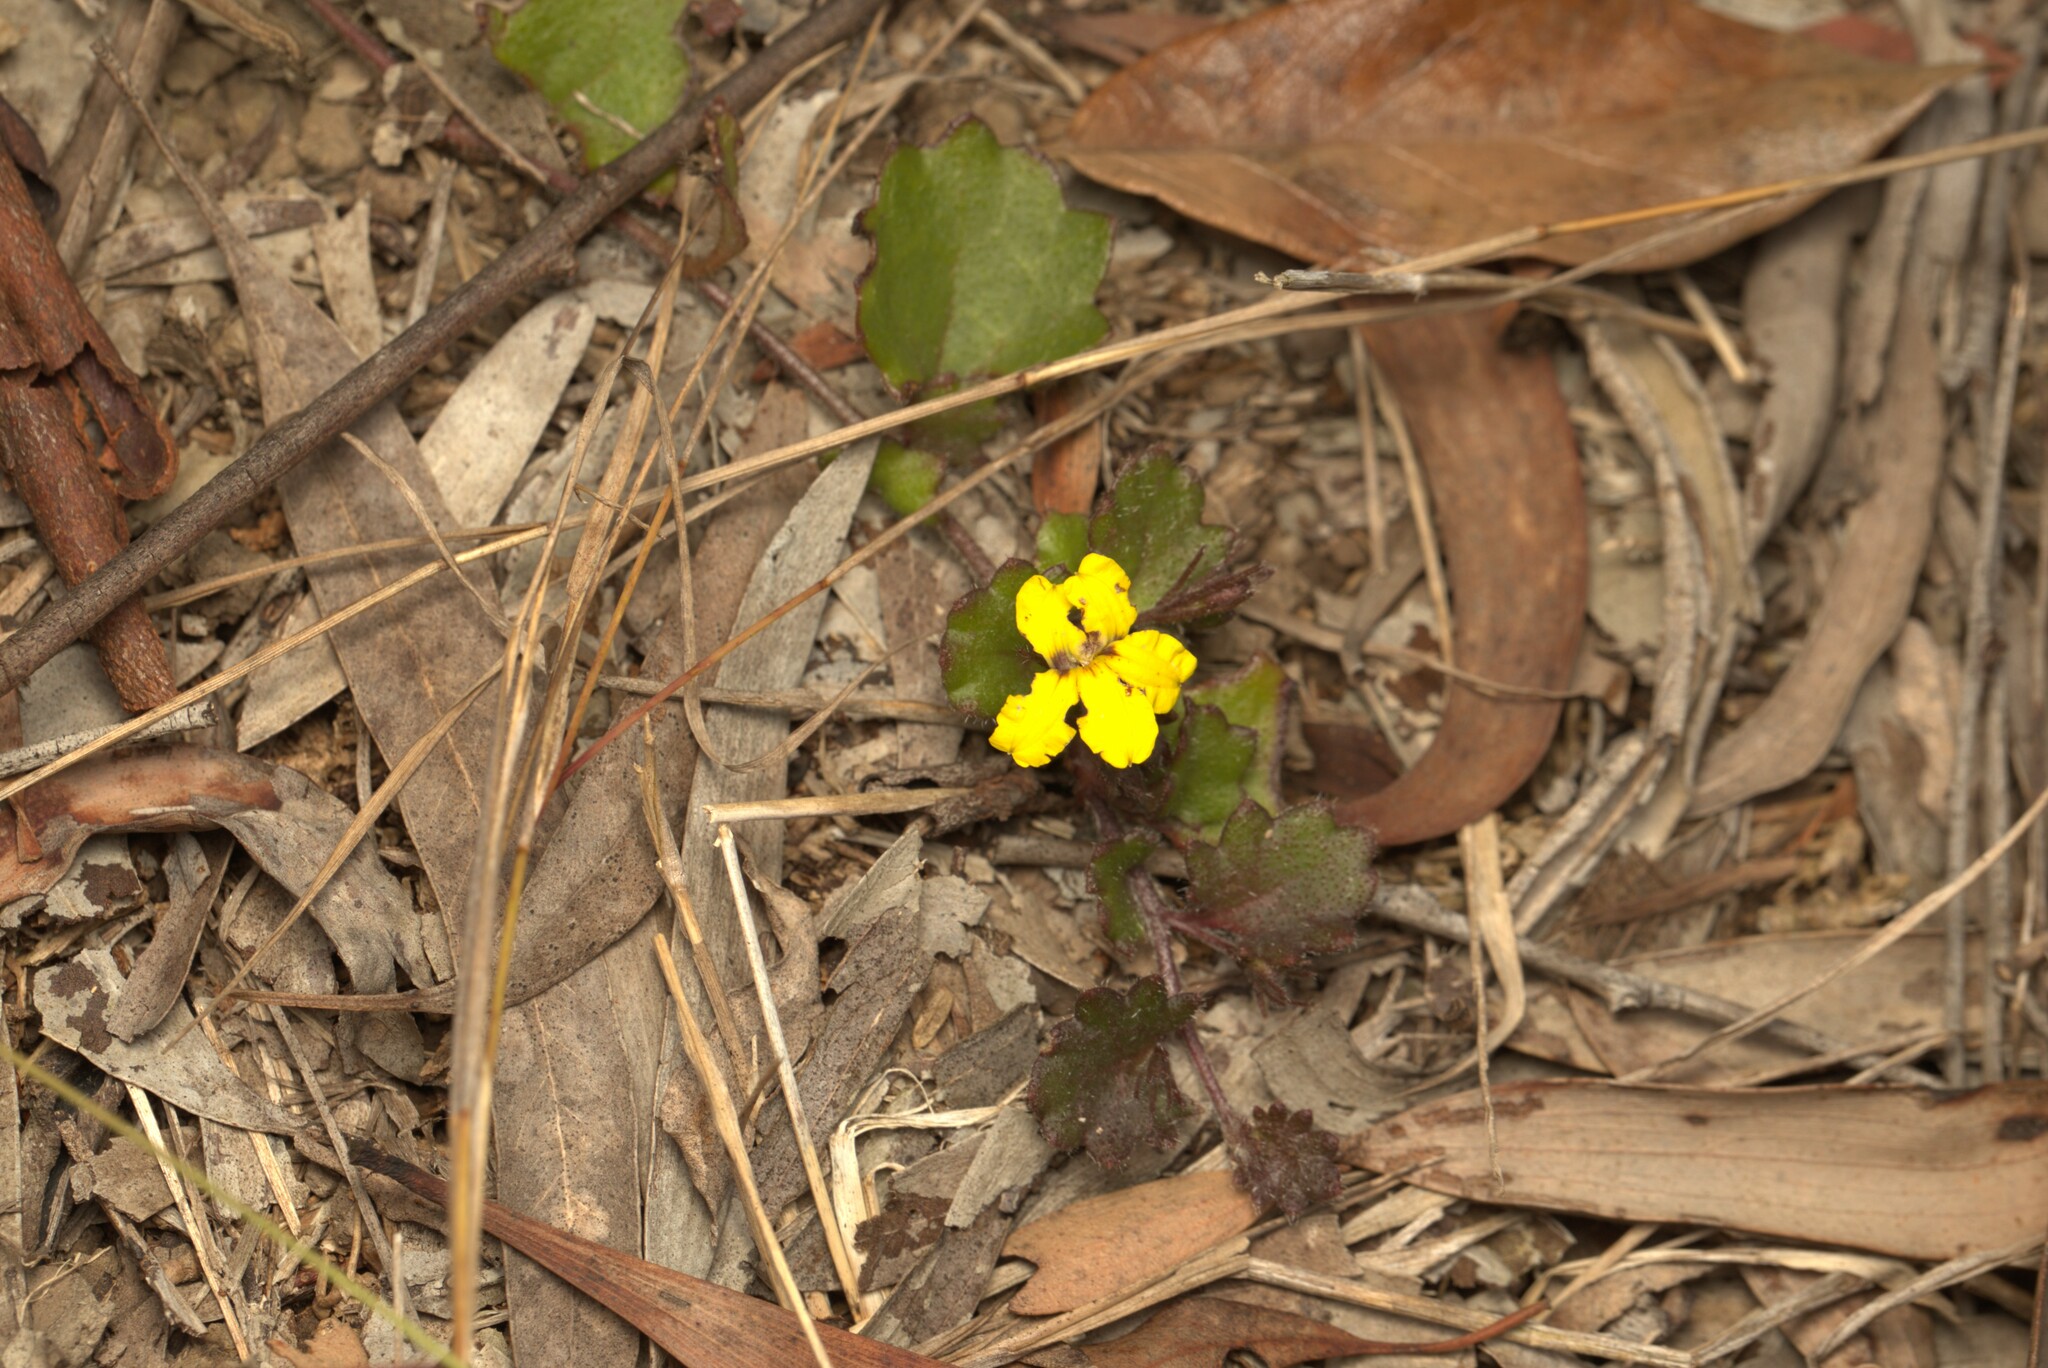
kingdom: Plantae
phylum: Tracheophyta
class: Magnoliopsida
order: Asterales
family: Goodeniaceae
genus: Goodenia
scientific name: Goodenia rotundifolia
